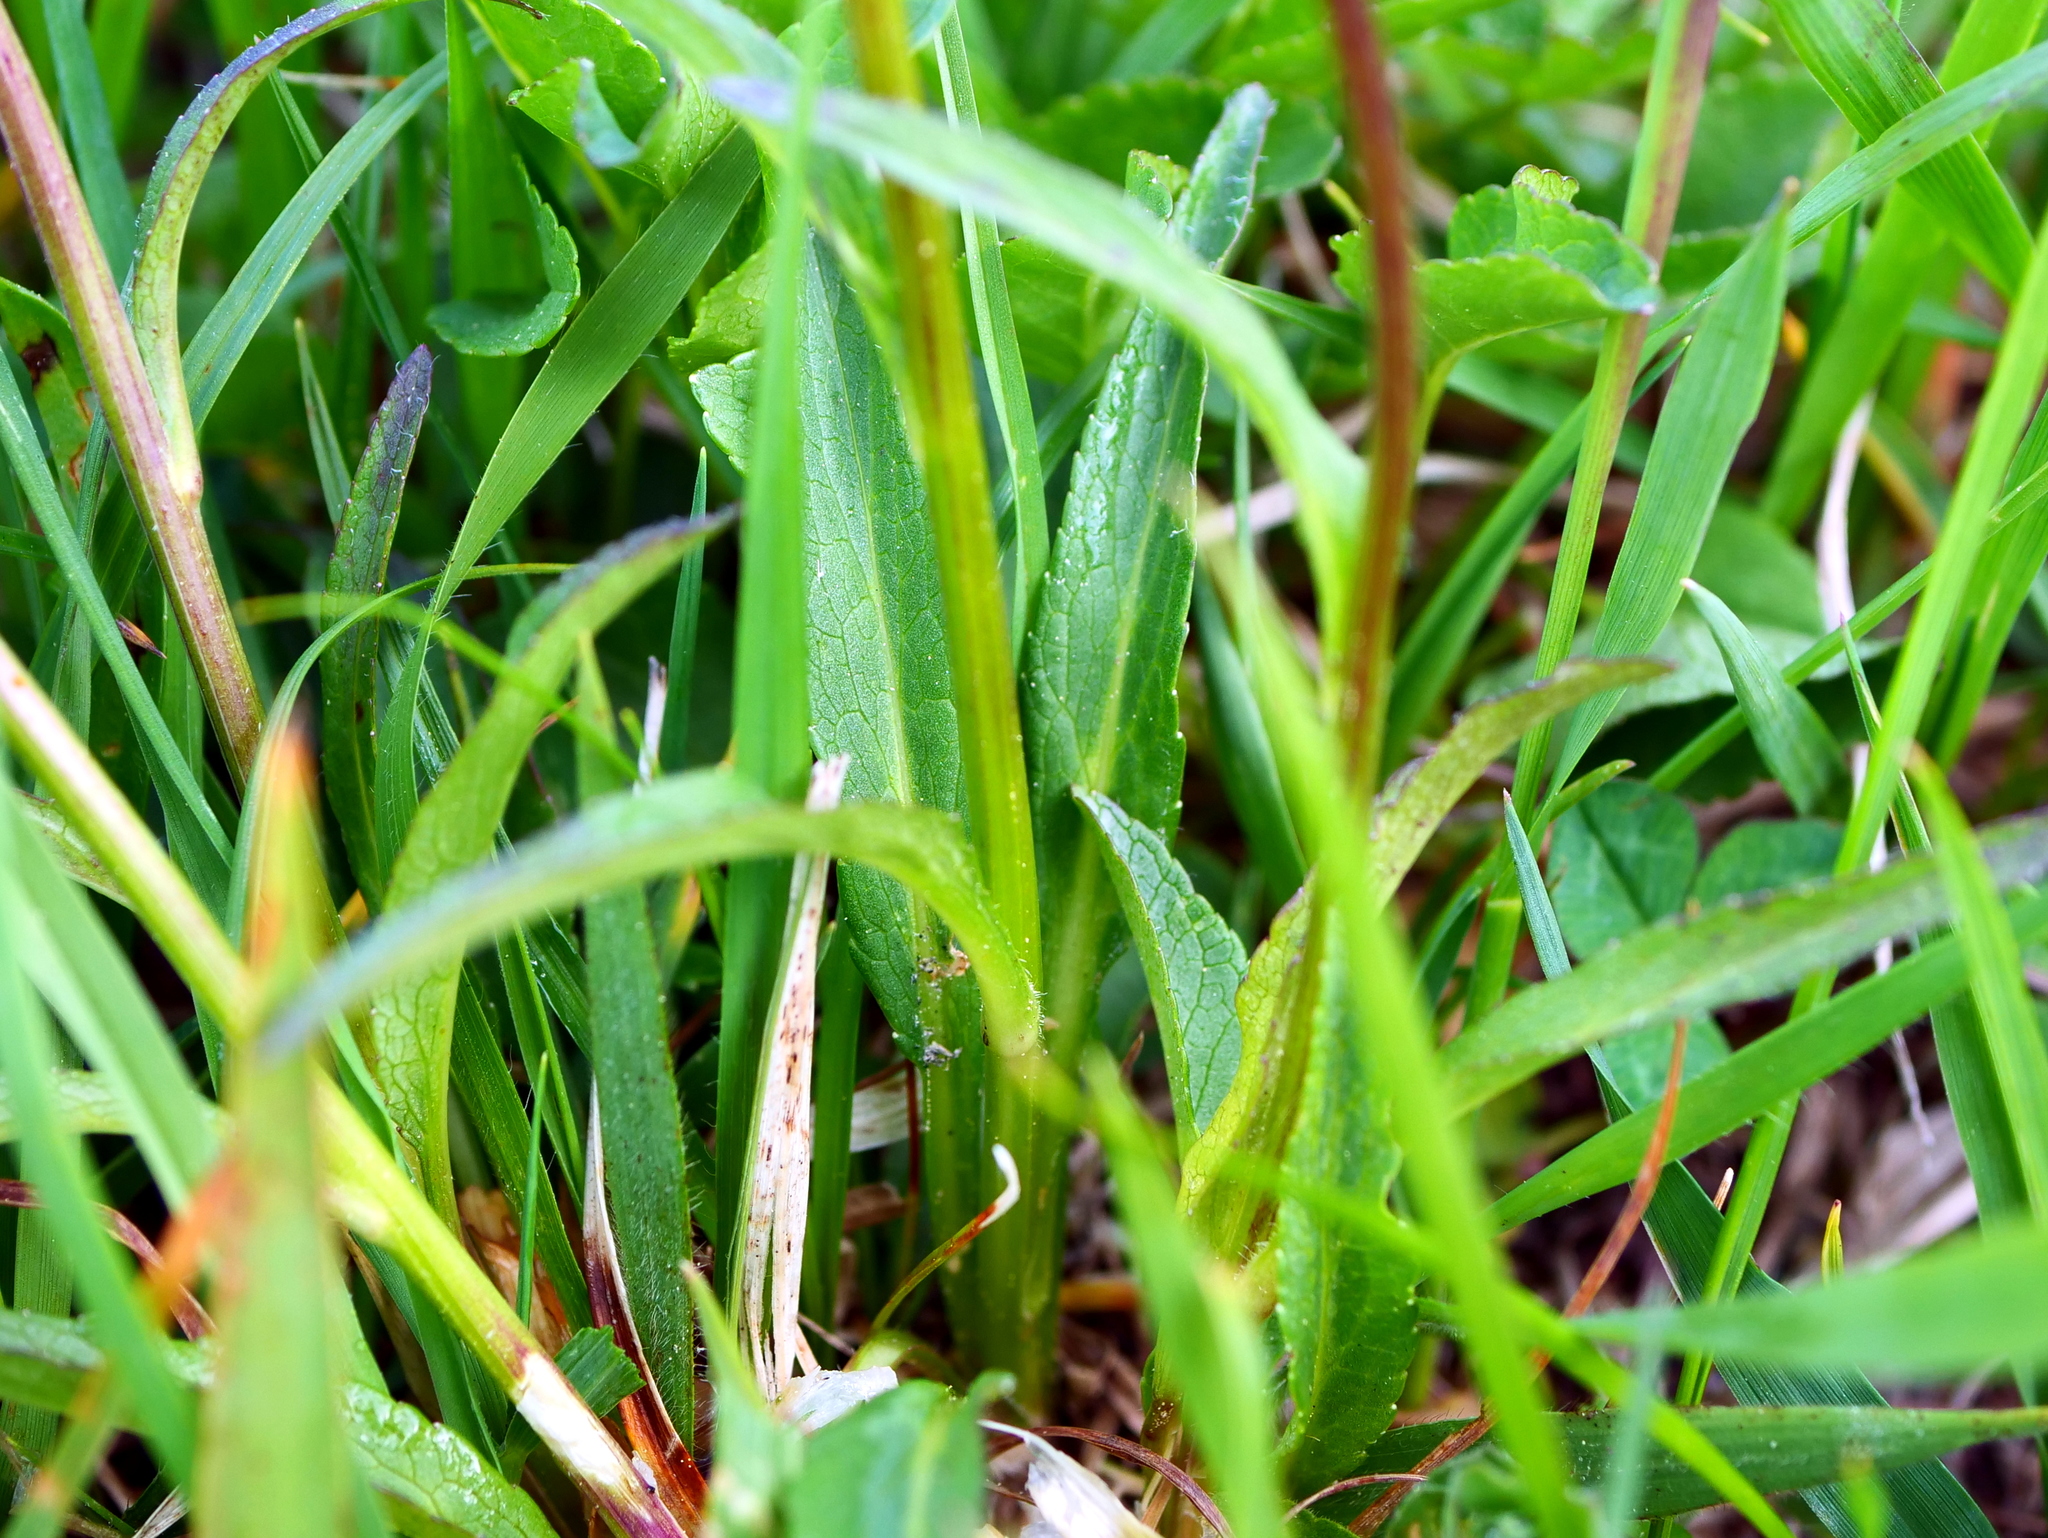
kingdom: Plantae
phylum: Tracheophyta
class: Magnoliopsida
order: Asterales
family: Campanulaceae
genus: Phyteuma
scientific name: Phyteuma orbiculare
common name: Round-headed rampion
